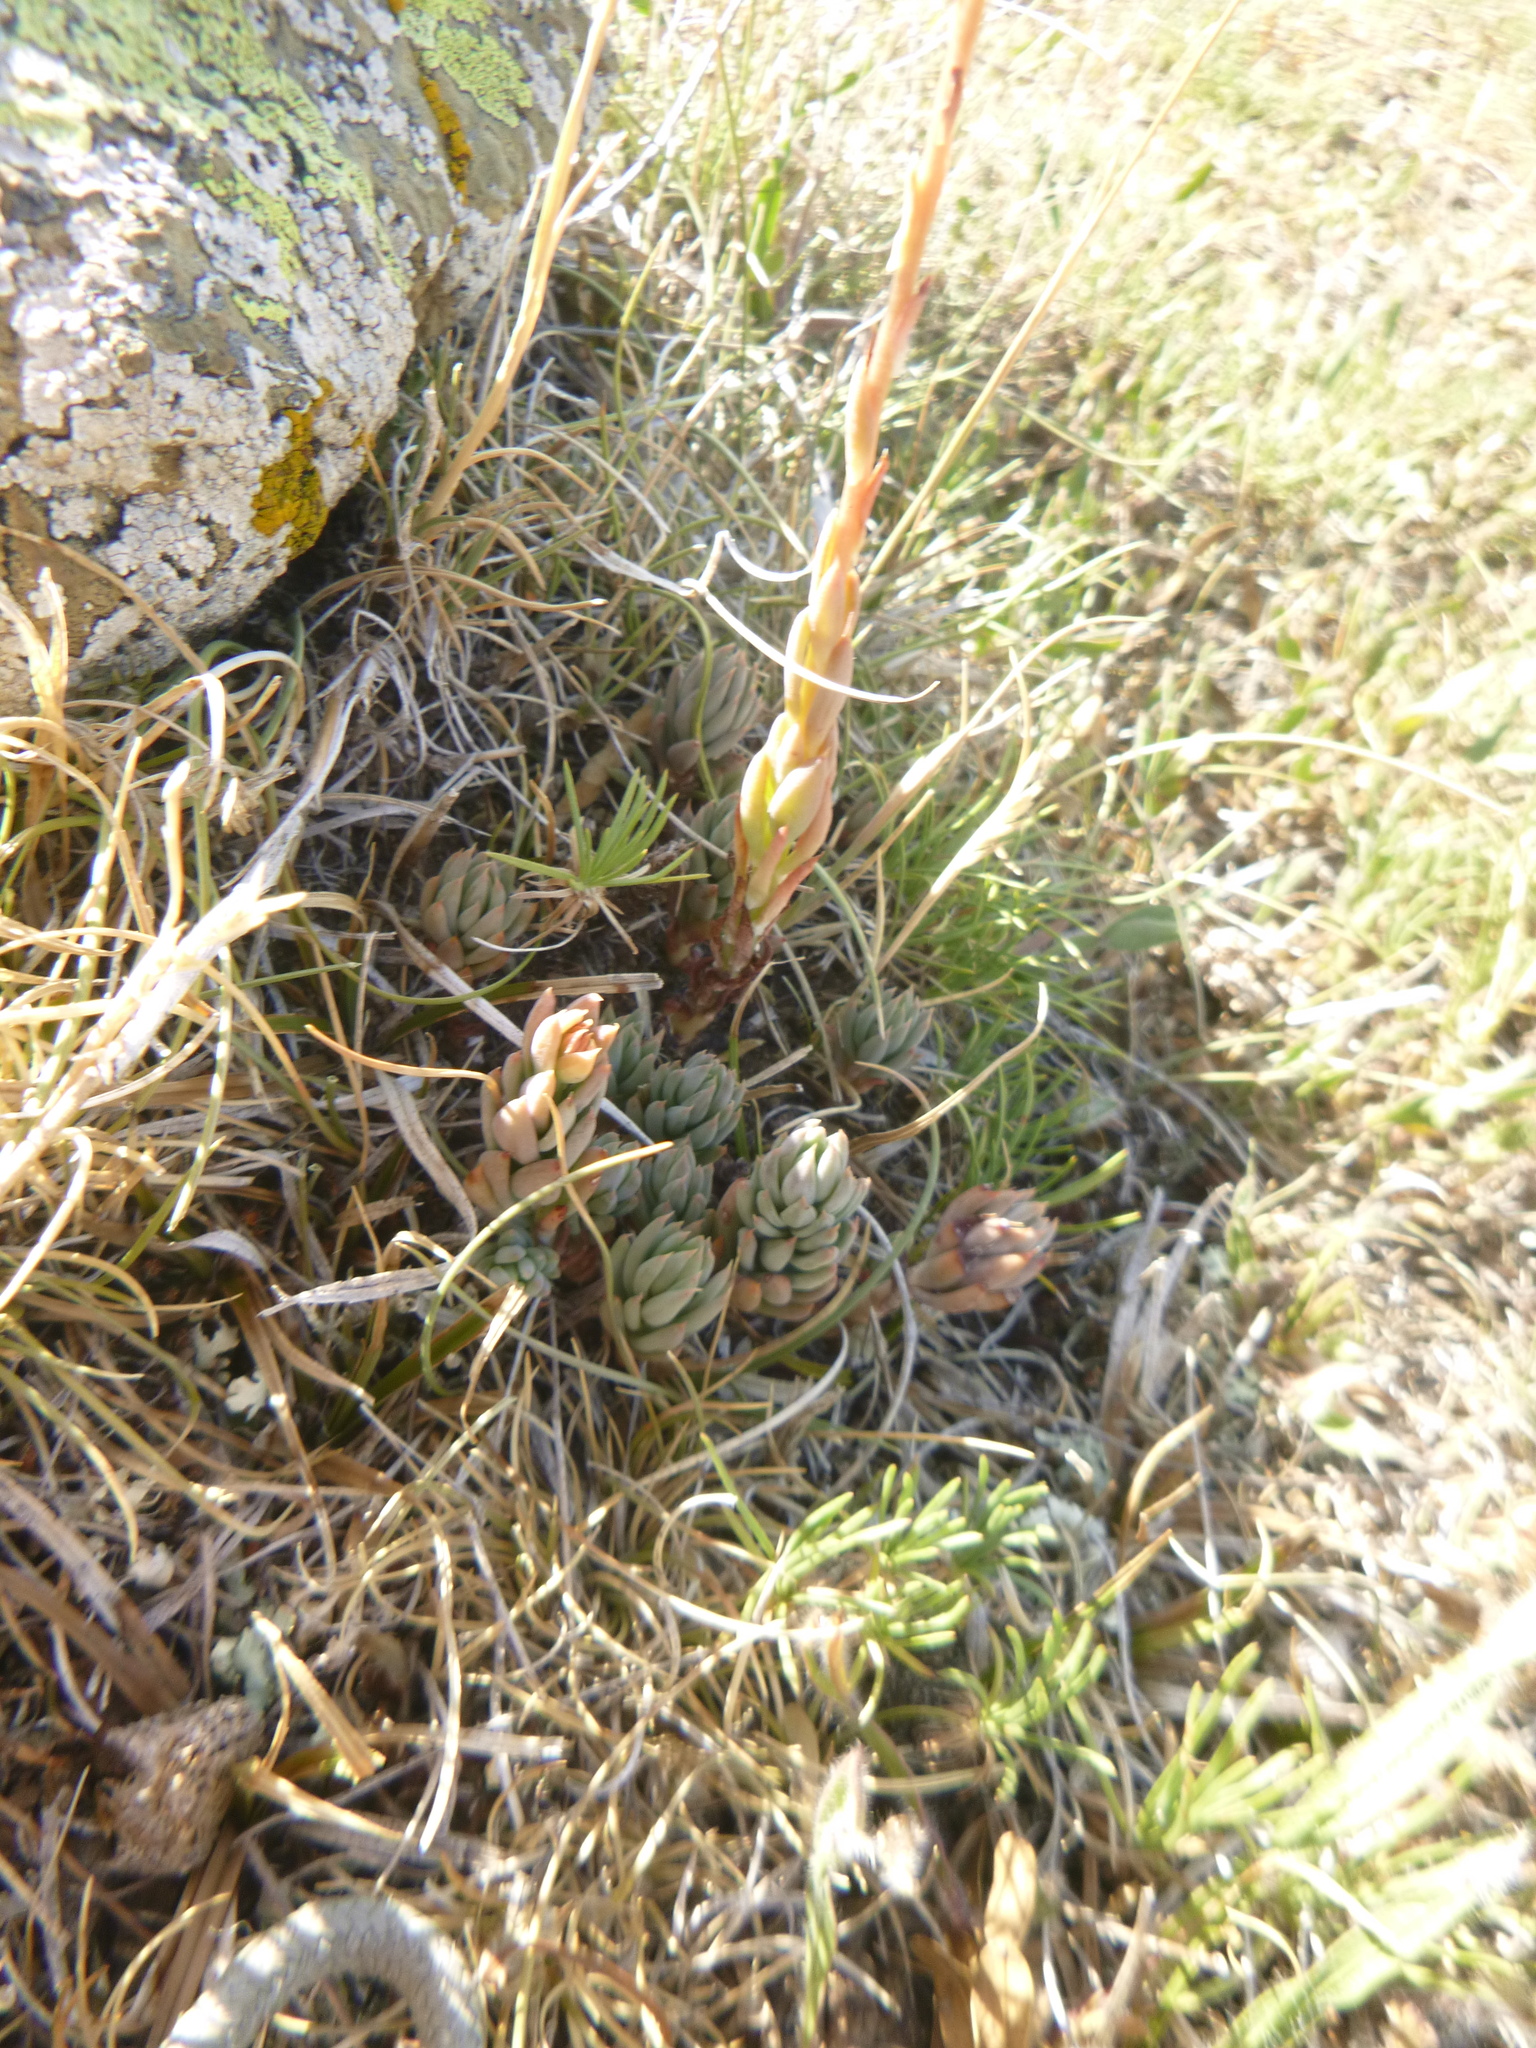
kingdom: Plantae
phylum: Tracheophyta
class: Magnoliopsida
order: Saxifragales
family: Crassulaceae
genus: Petrosedum
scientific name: Petrosedum sediforme
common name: Pale stonecrop
